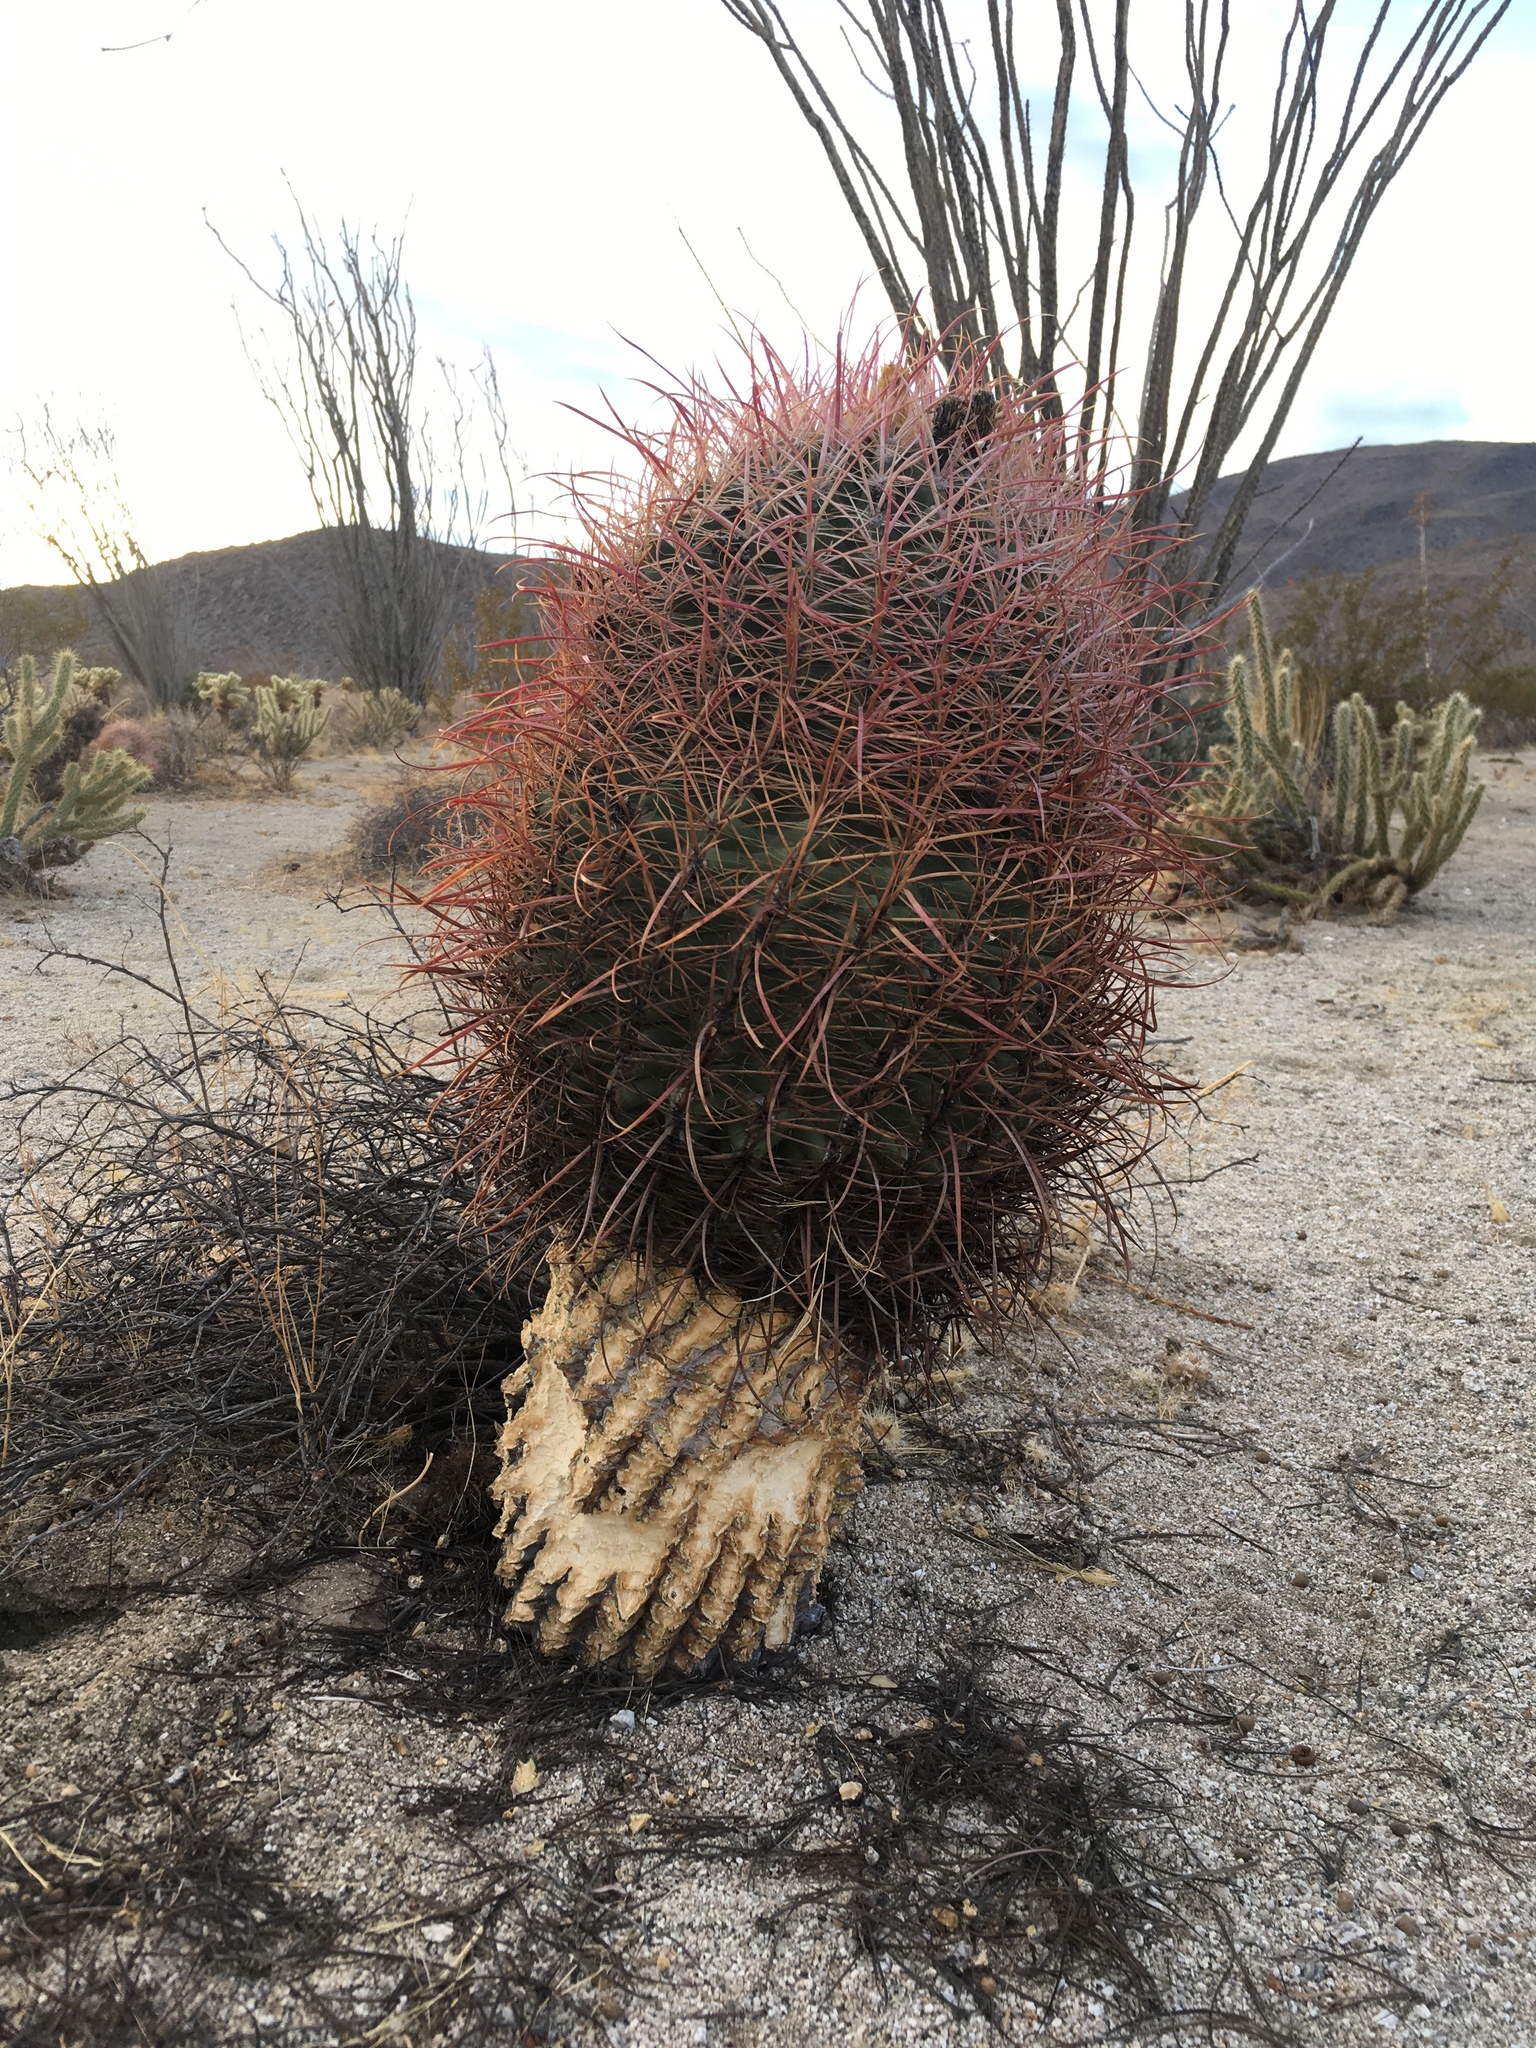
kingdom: Plantae
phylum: Tracheophyta
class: Magnoliopsida
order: Caryophyllales
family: Cactaceae
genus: Ferocactus
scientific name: Ferocactus cylindraceus
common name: California barrel cactus
